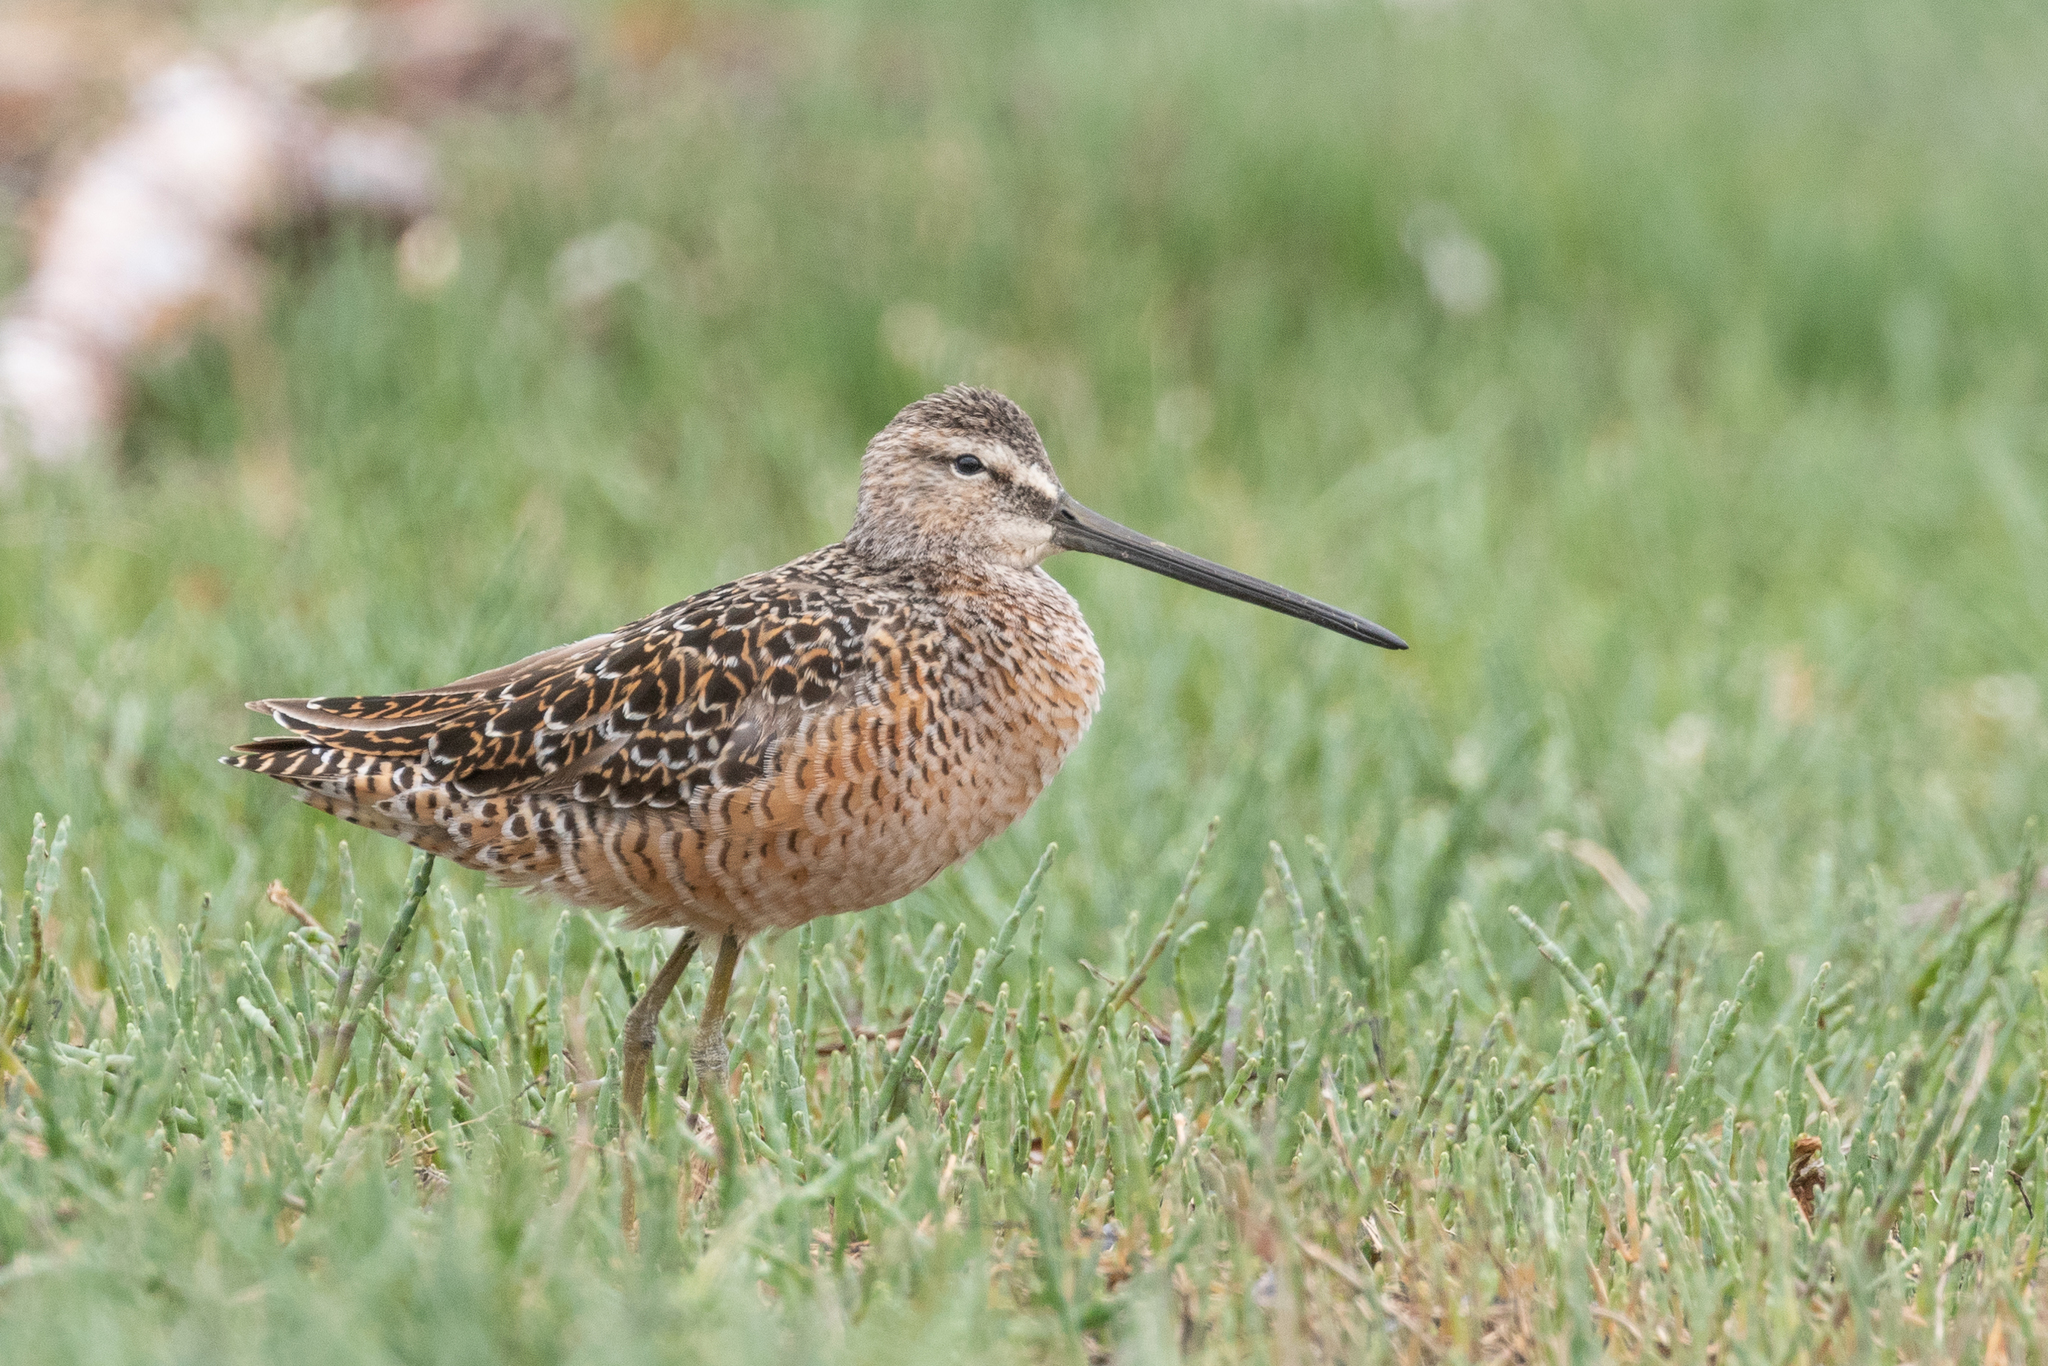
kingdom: Animalia
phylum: Chordata
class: Aves
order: Charadriiformes
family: Scolopacidae
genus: Limnodromus
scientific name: Limnodromus scolopaceus
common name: Long-billed dowitcher
